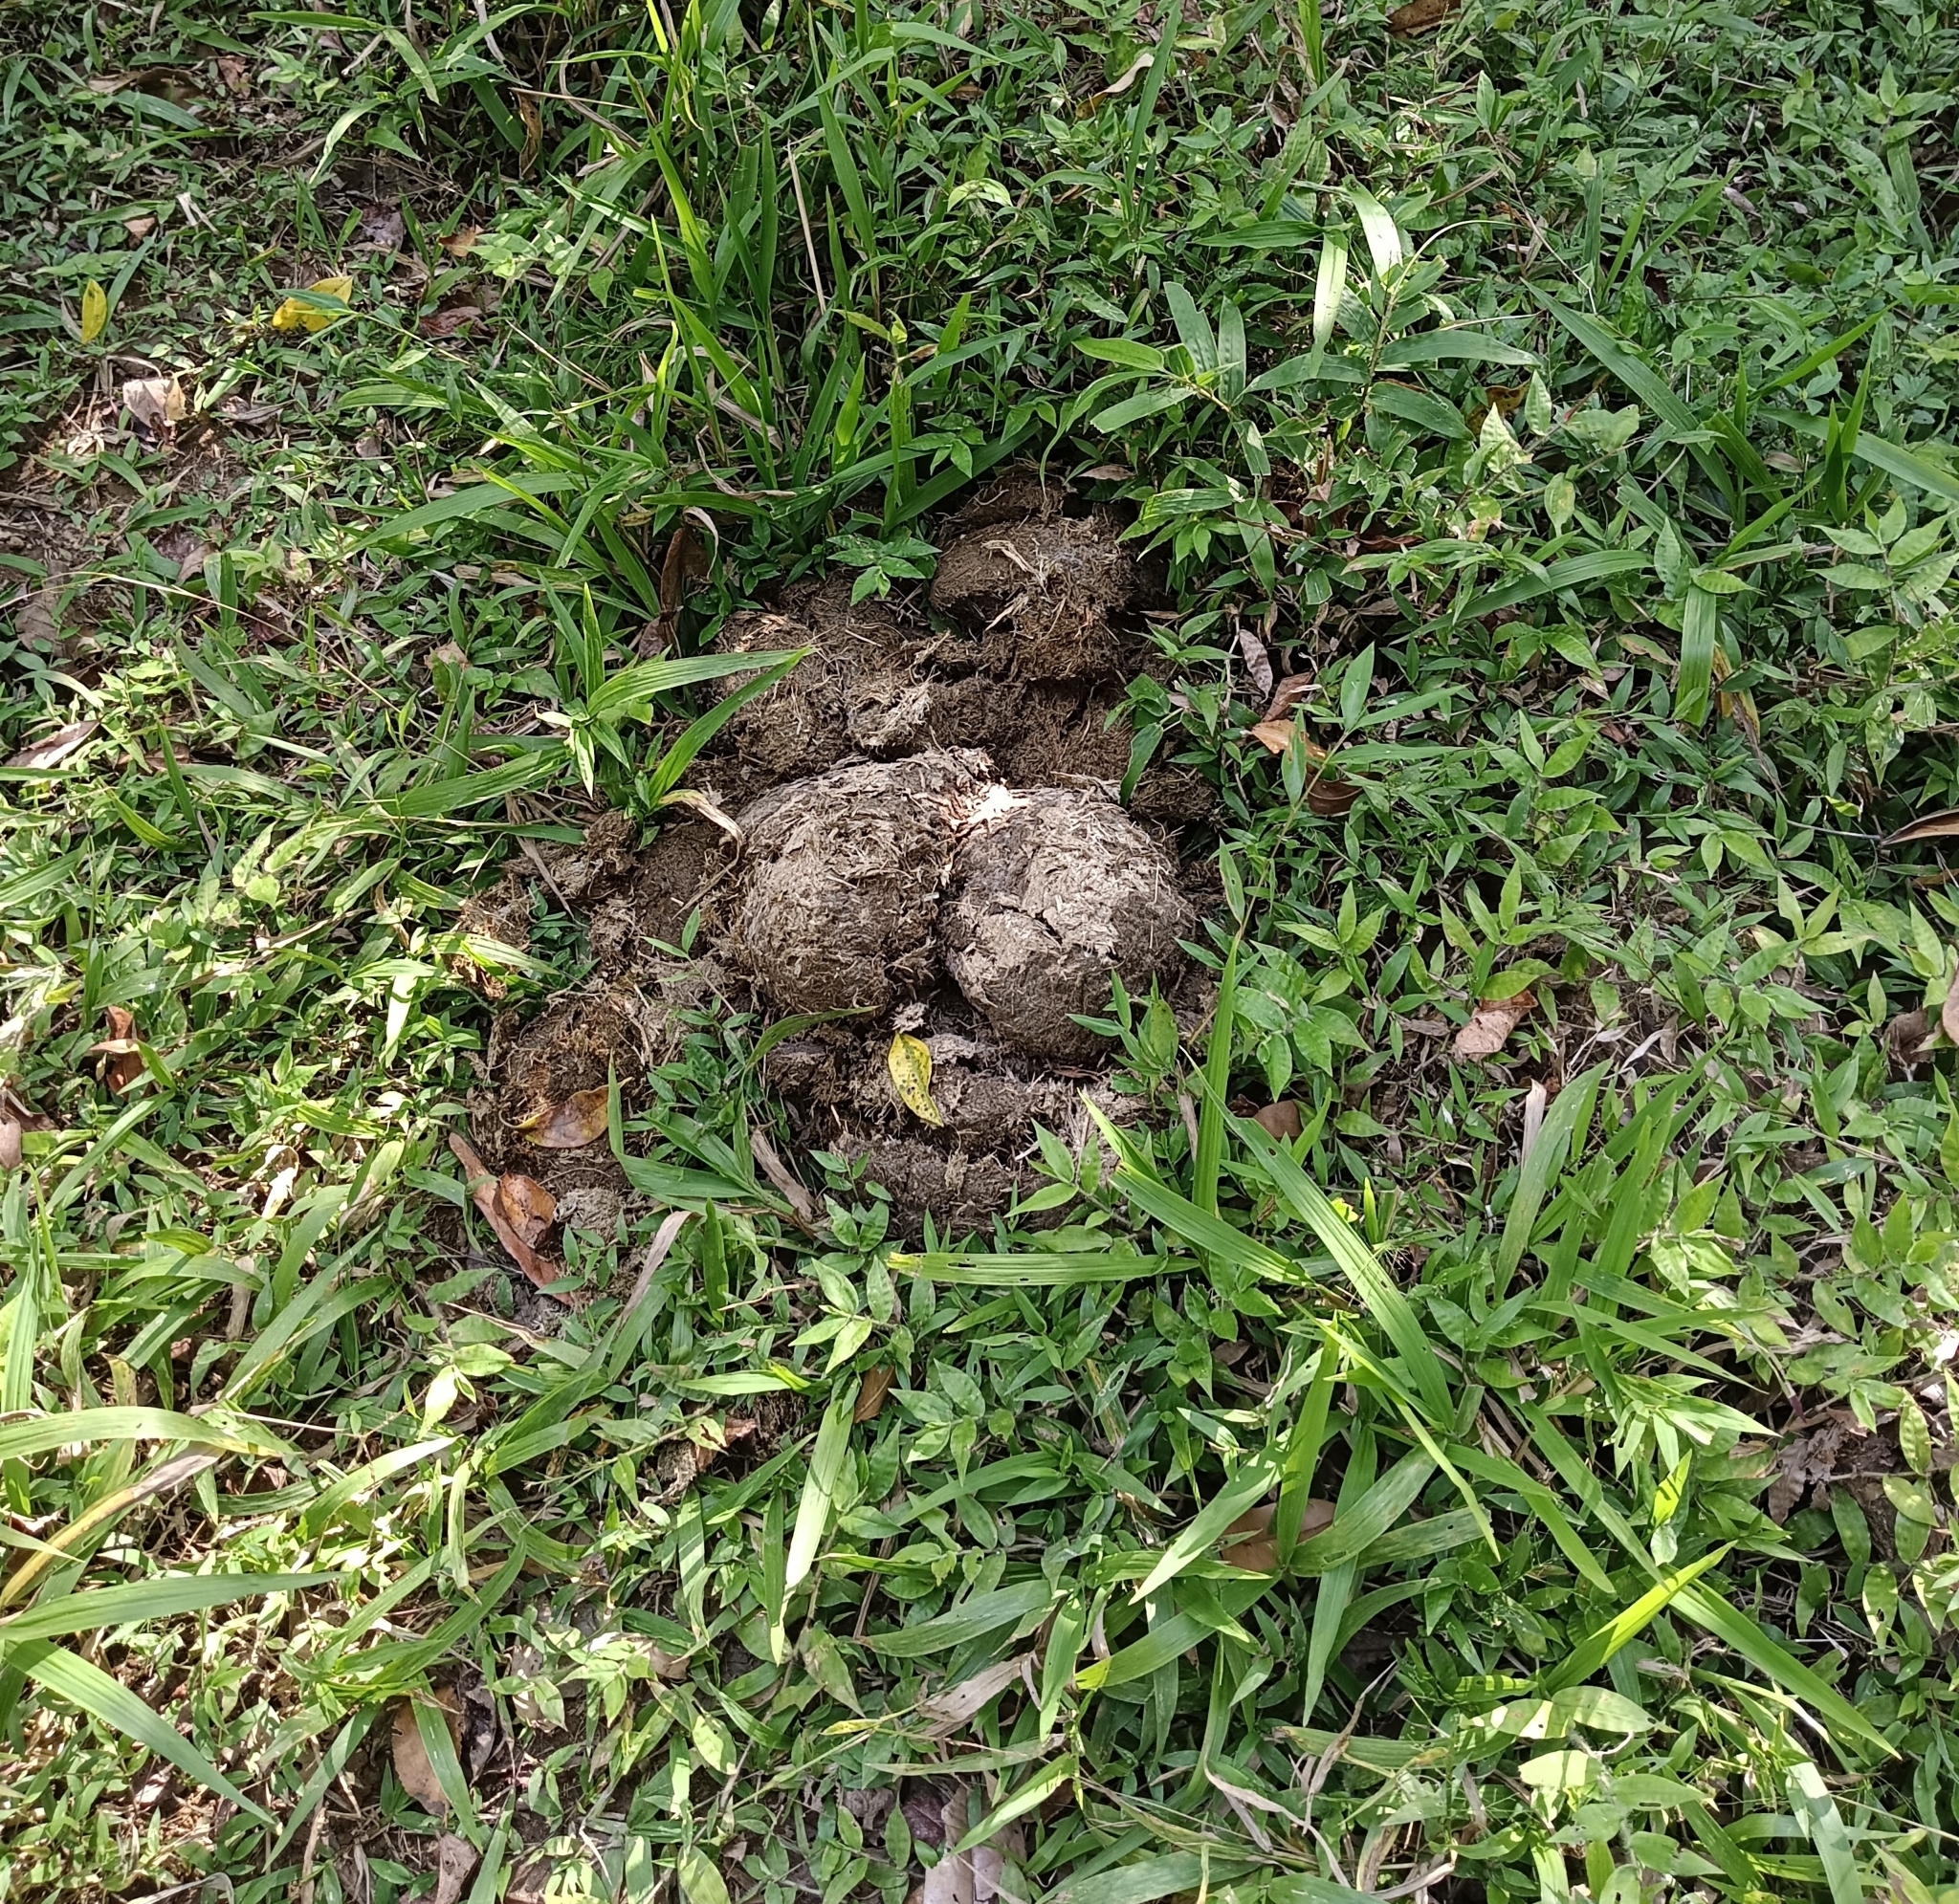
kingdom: Animalia
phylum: Chordata
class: Mammalia
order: Proboscidea
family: Elephantidae
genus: Elephas
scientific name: Elephas maximus
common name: Asian elephant
